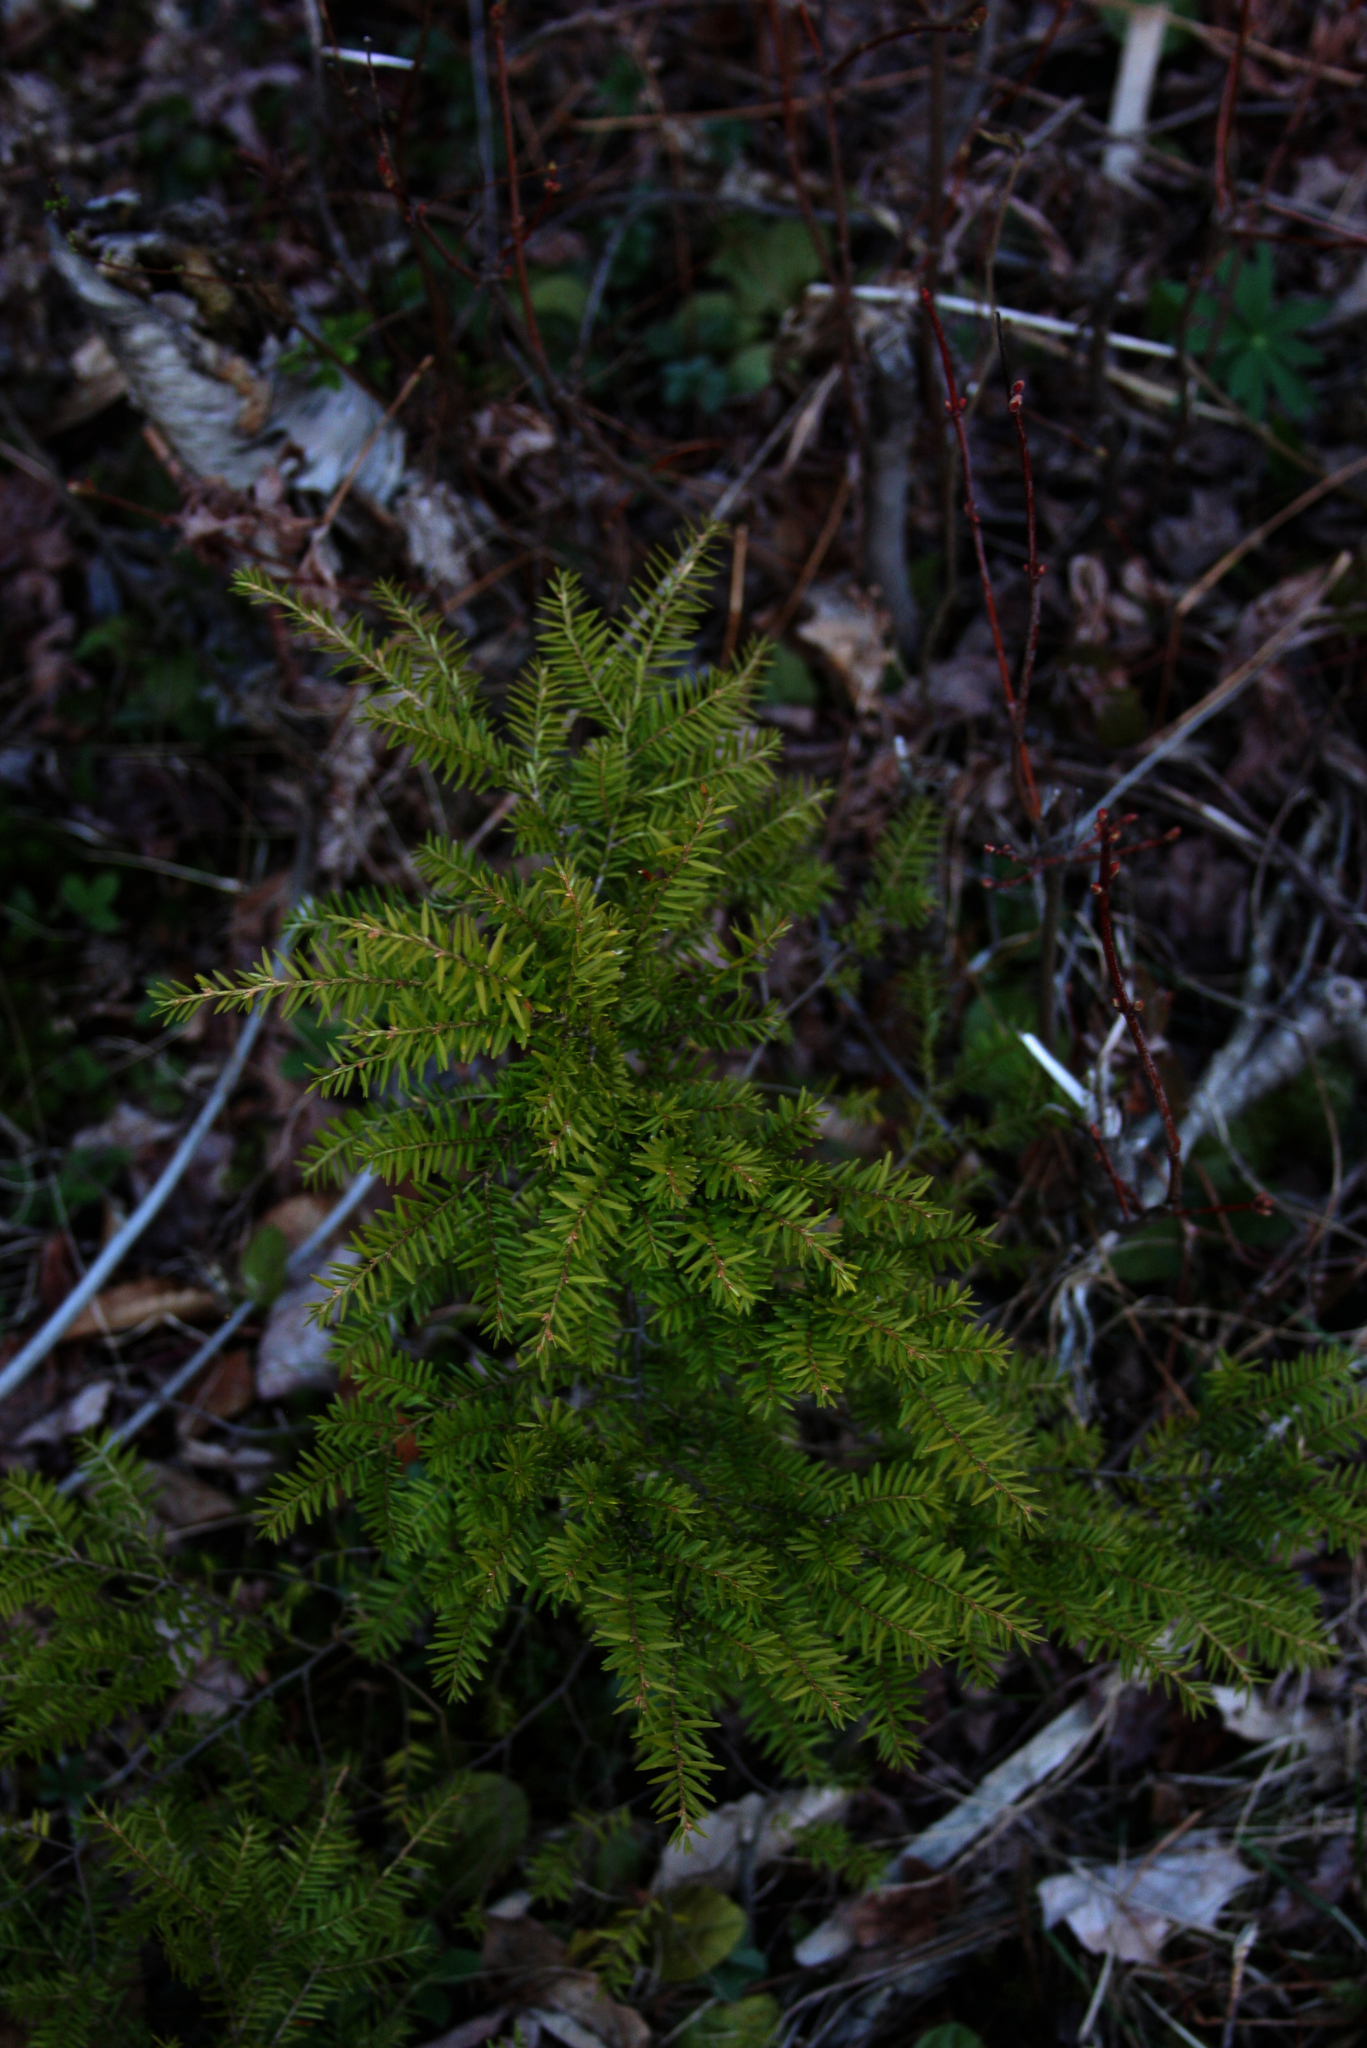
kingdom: Plantae
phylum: Tracheophyta
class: Pinopsida
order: Pinales
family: Pinaceae
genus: Tsuga
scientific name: Tsuga canadensis
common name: Eastern hemlock
